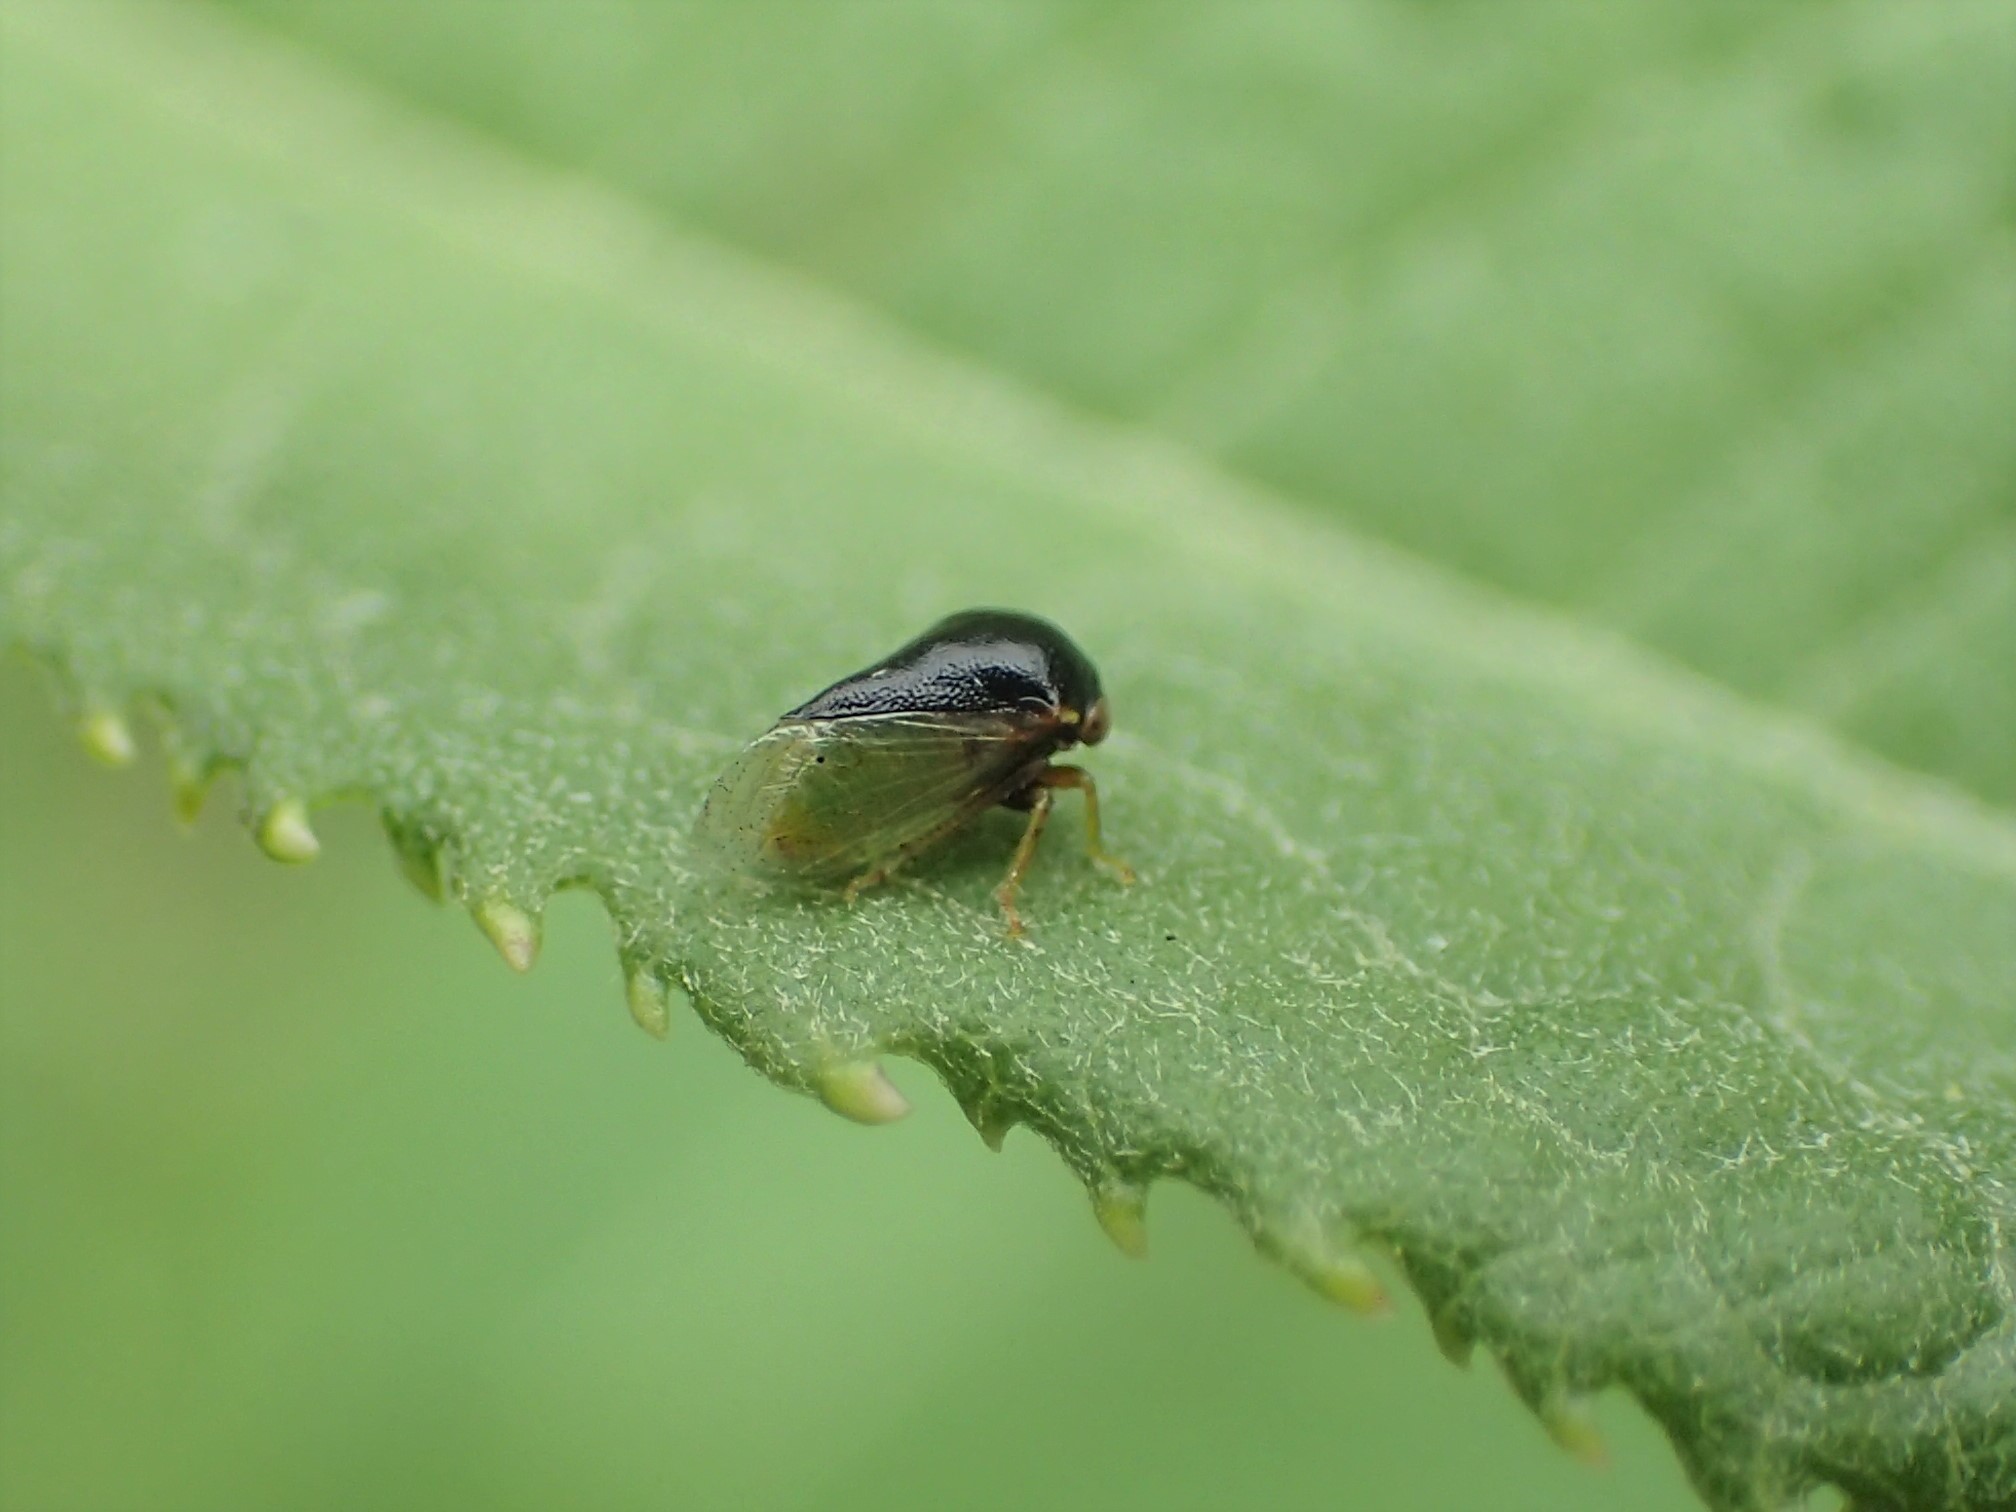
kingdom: Animalia
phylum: Arthropoda
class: Insecta
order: Hemiptera
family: Membracidae
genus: Micrutalis
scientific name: Micrutalis calva
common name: Honeylocust treehopper
